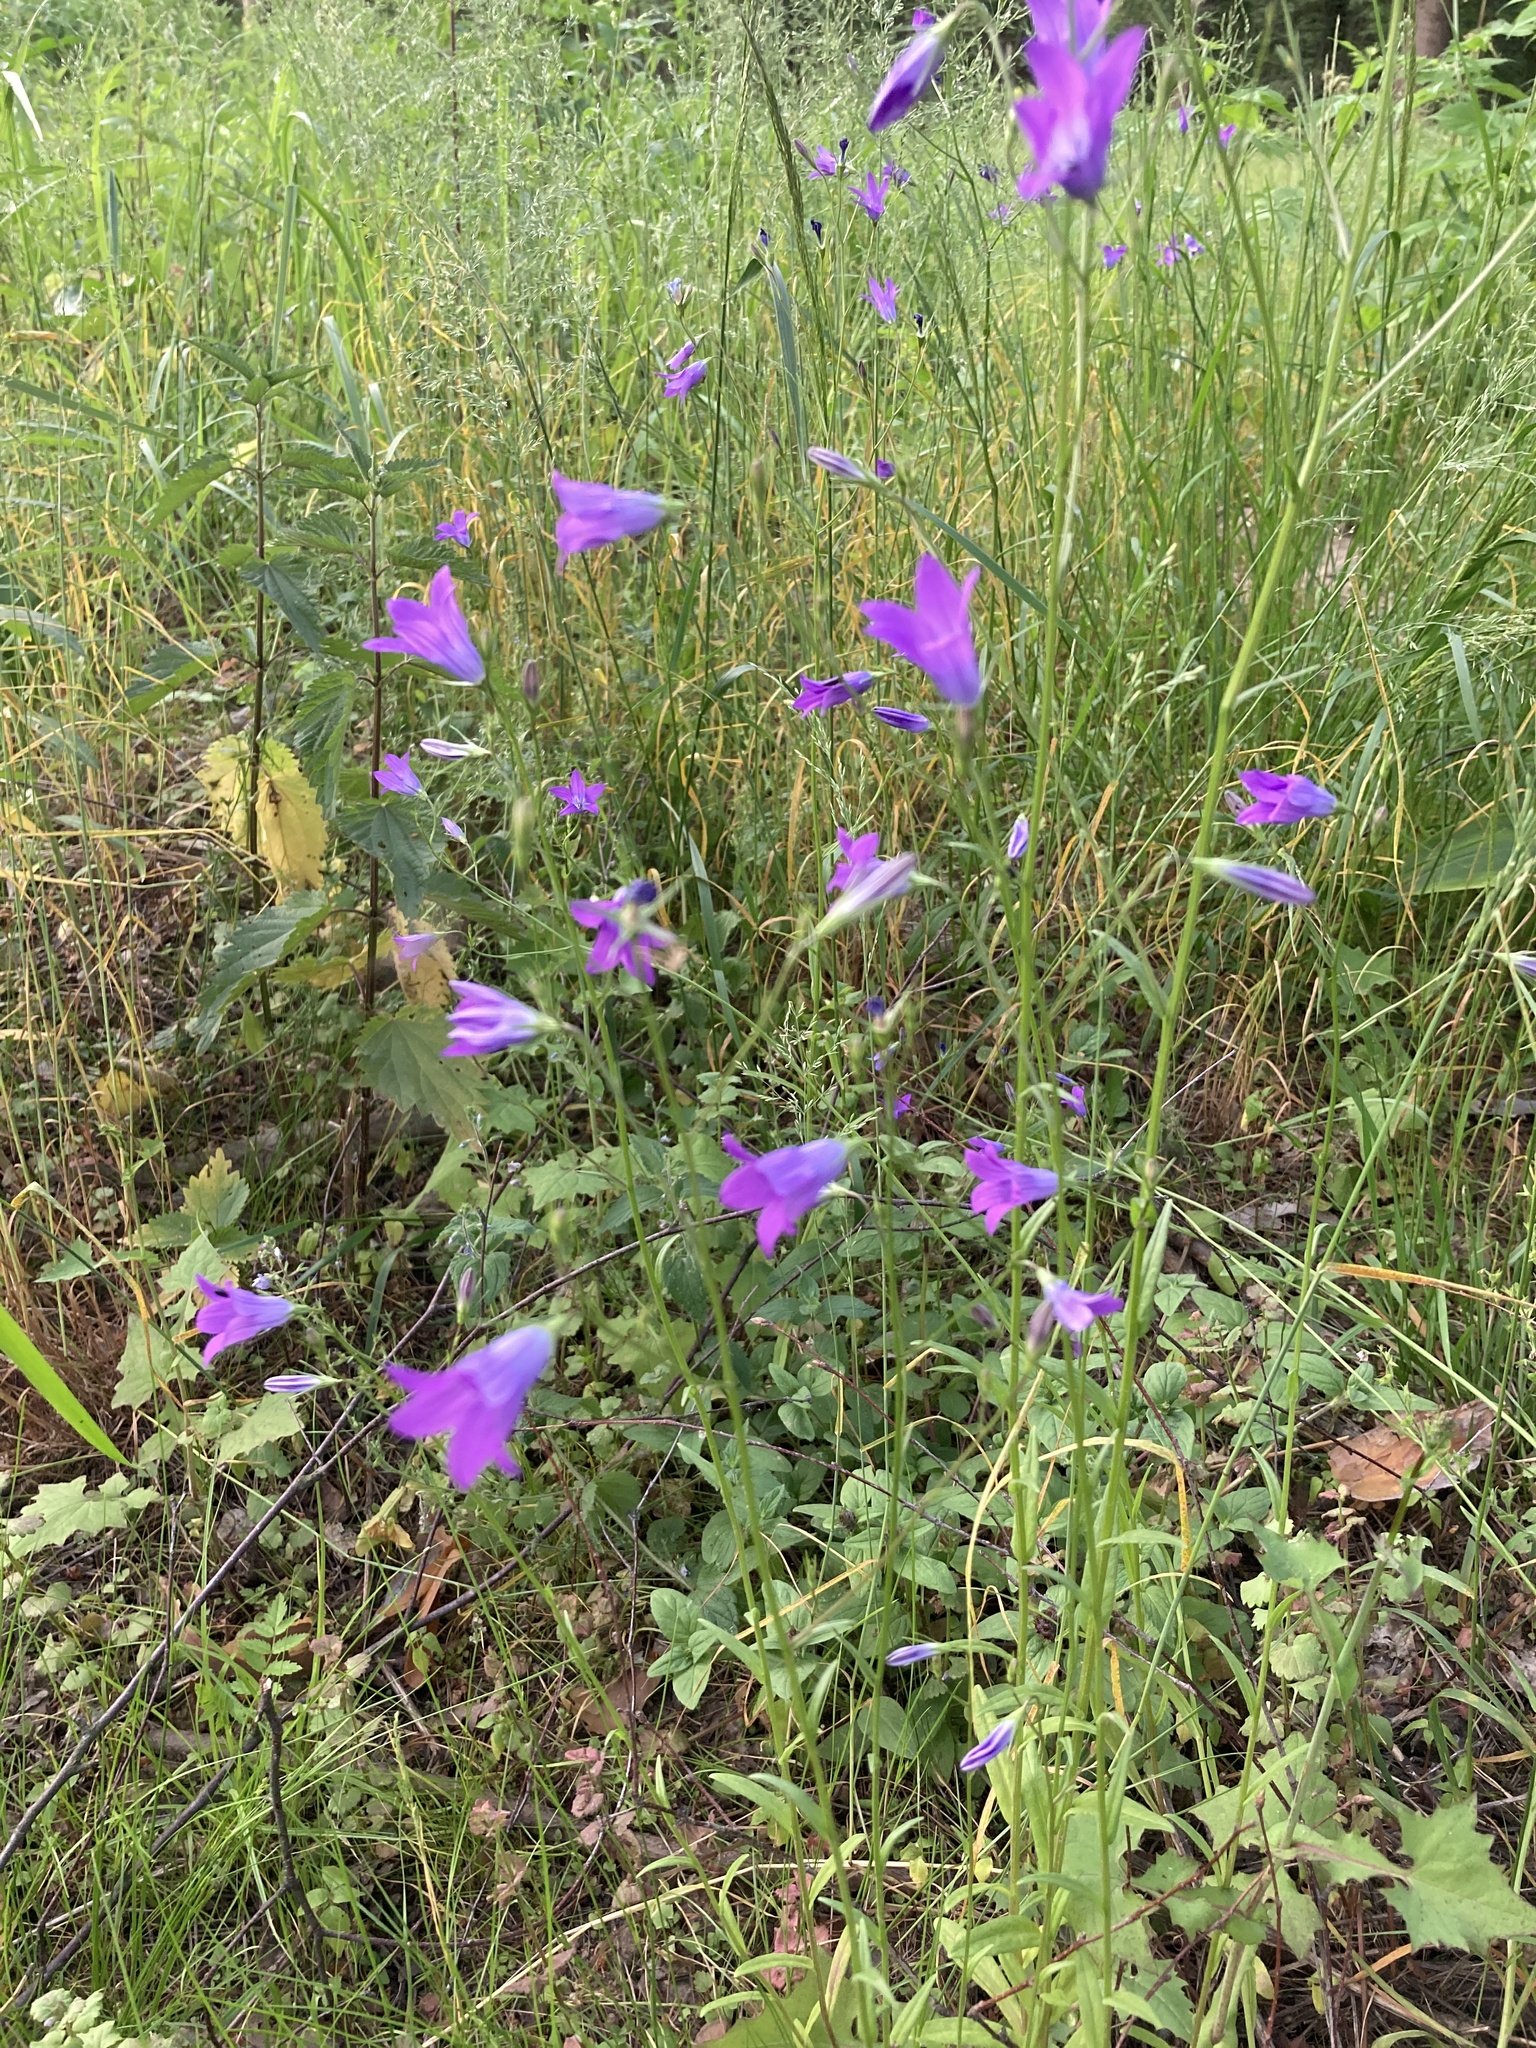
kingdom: Plantae
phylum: Tracheophyta
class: Magnoliopsida
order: Asterales
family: Campanulaceae
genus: Campanula
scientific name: Campanula patula
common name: Spreading bellflower
